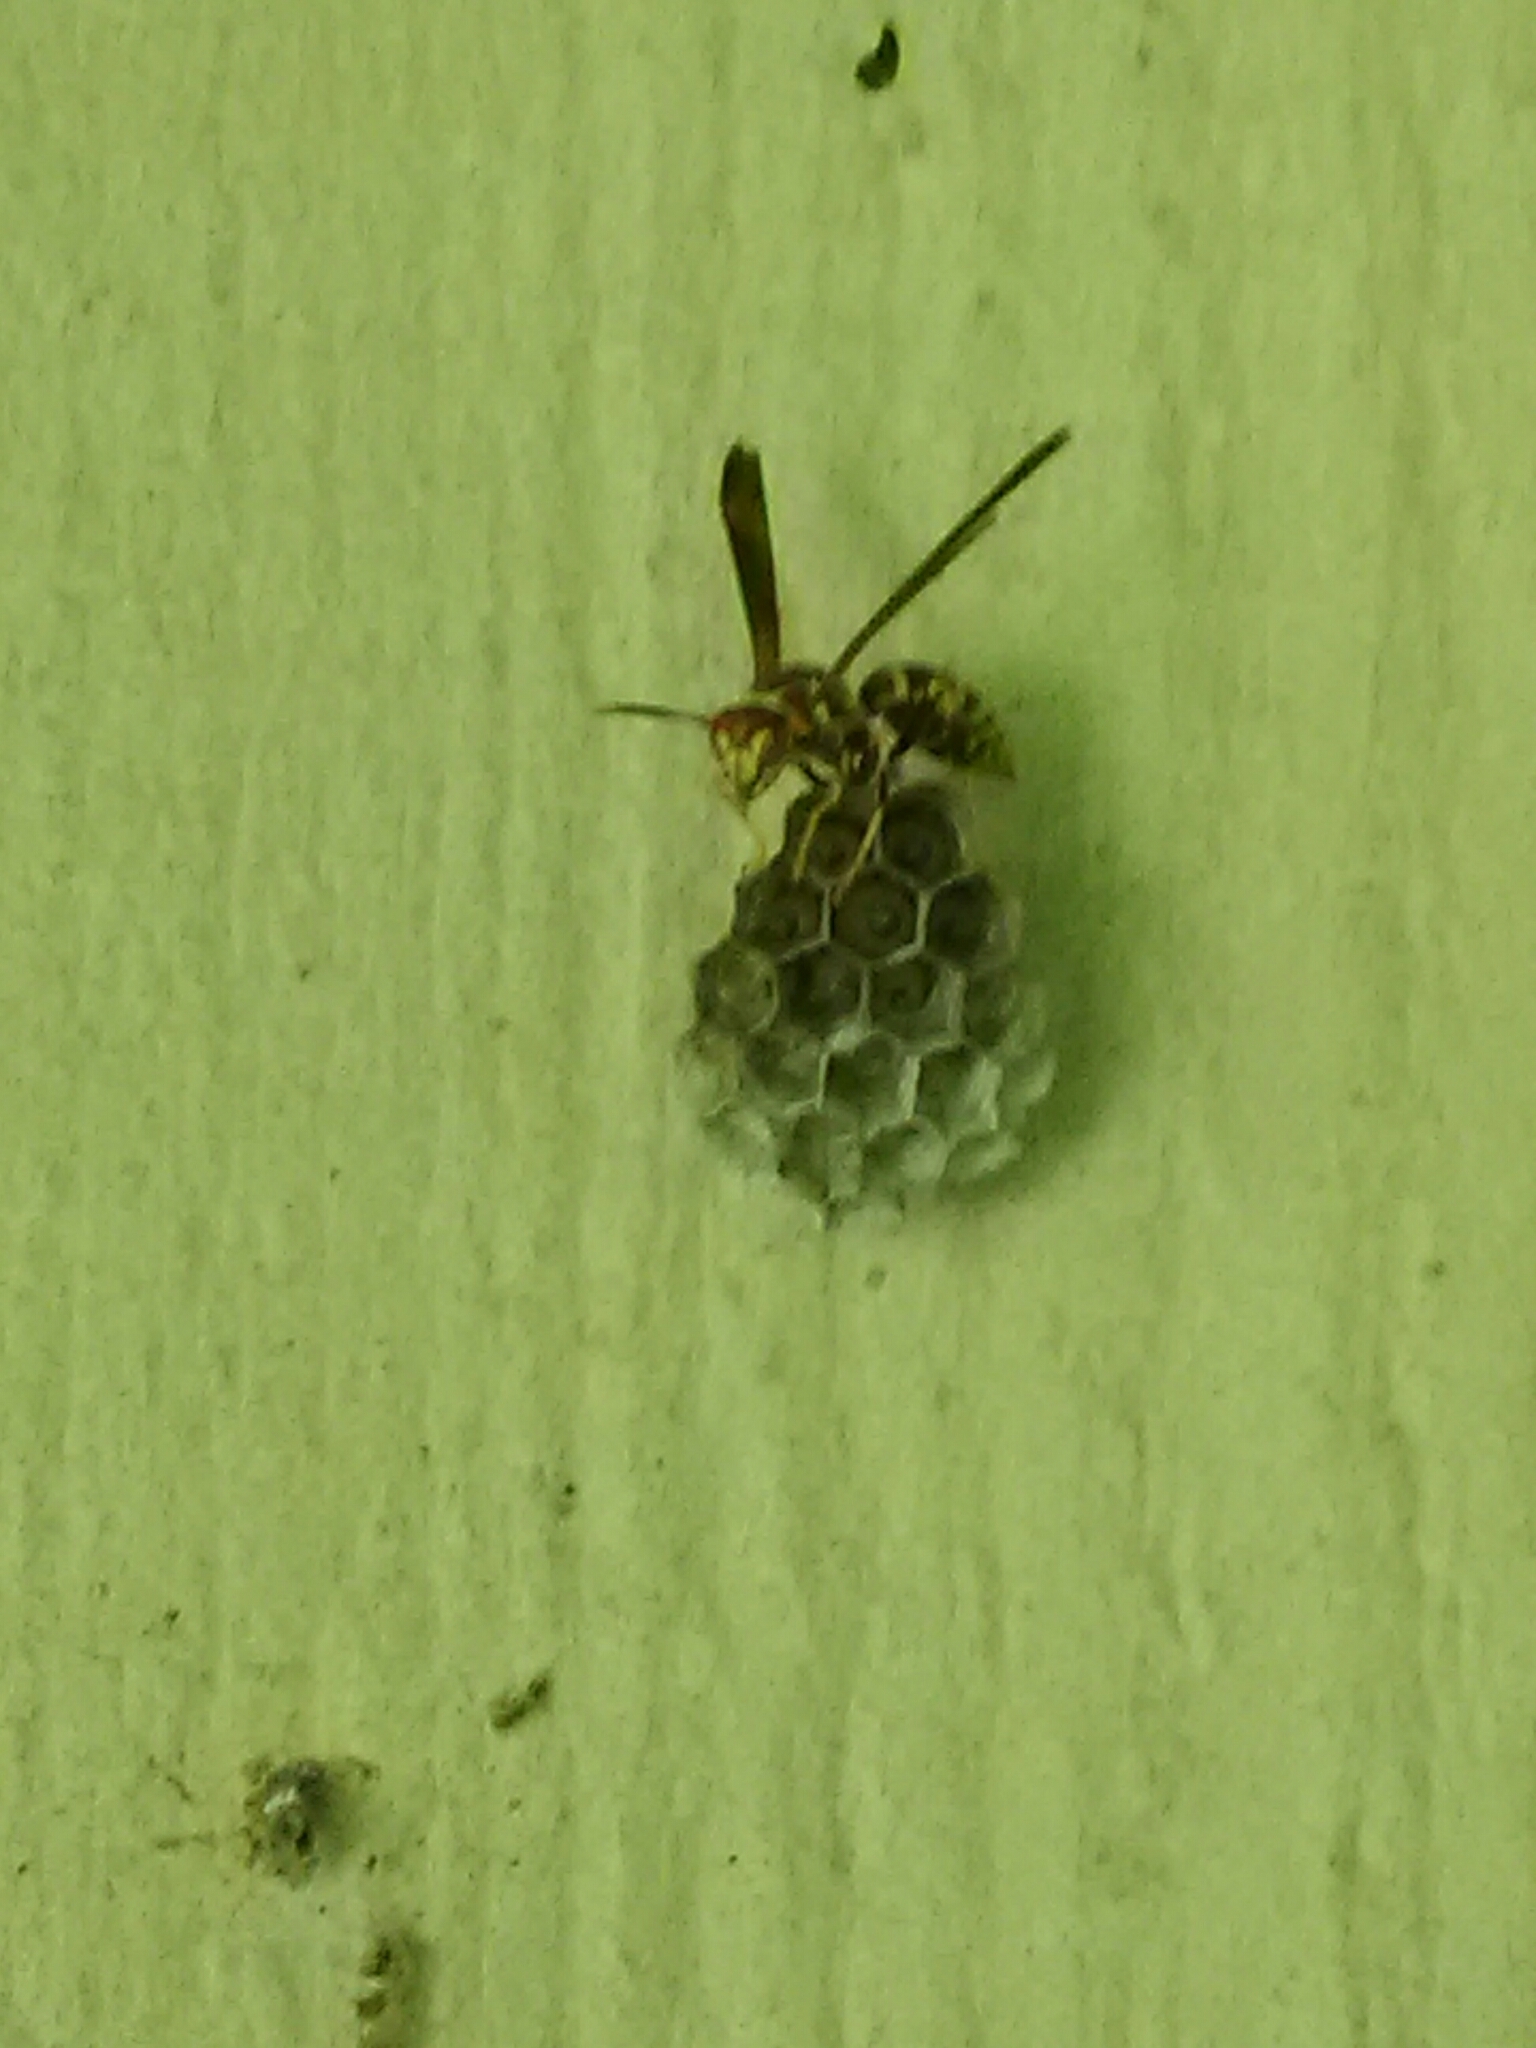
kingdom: Animalia
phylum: Arthropoda
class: Insecta
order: Hymenoptera
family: Eumenidae
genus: Polistes
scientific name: Polistes
